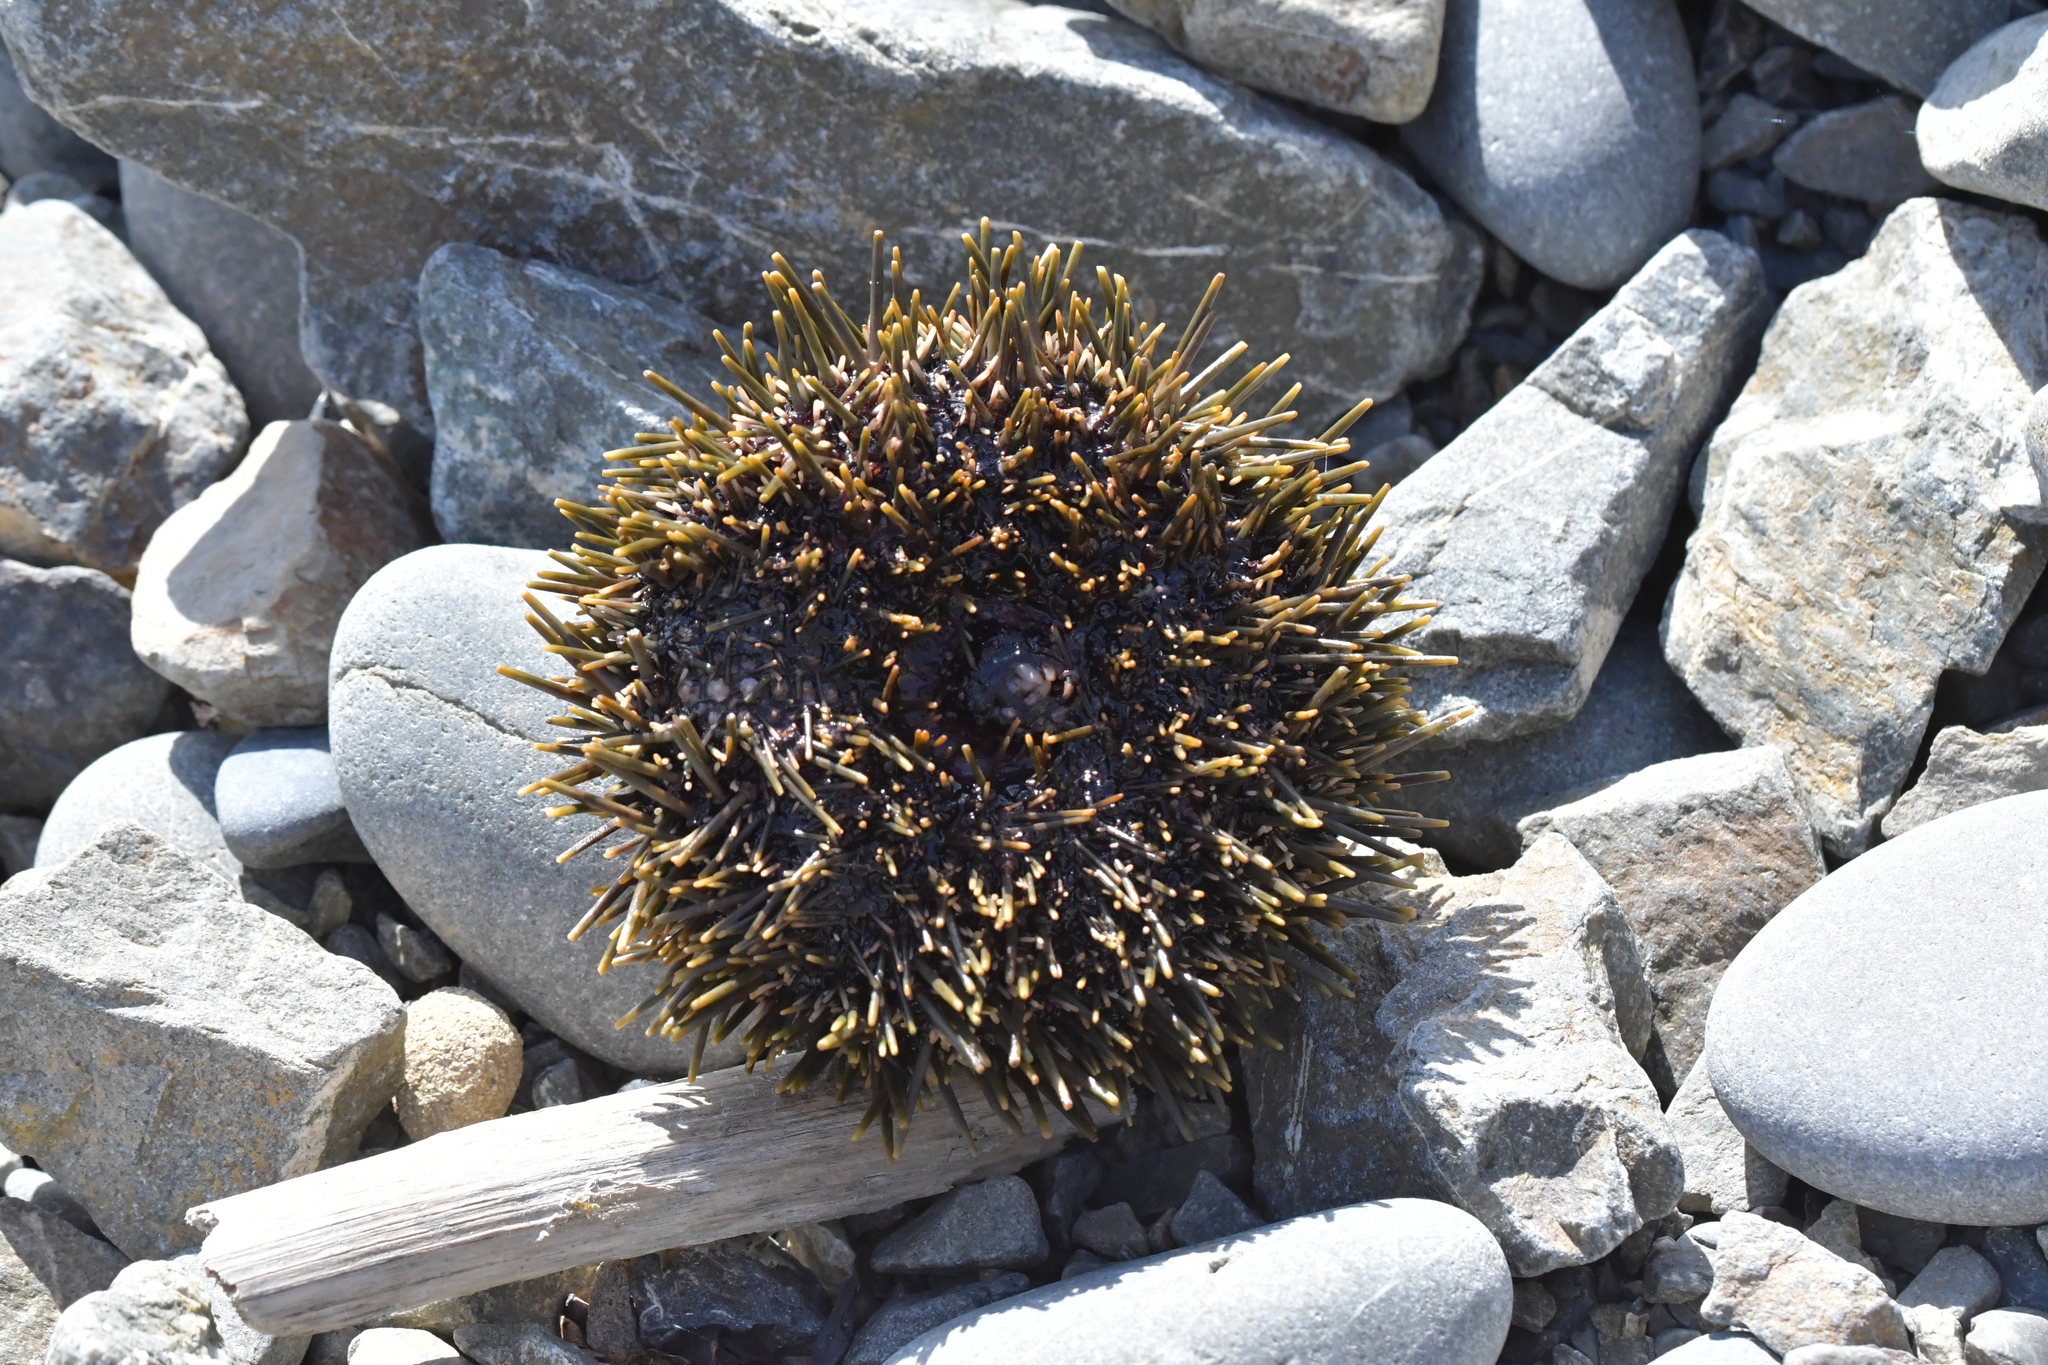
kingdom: Animalia
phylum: Echinodermata
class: Echinoidea
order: Camarodonta
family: Echinometridae
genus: Evechinus
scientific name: Evechinus chloroticus
